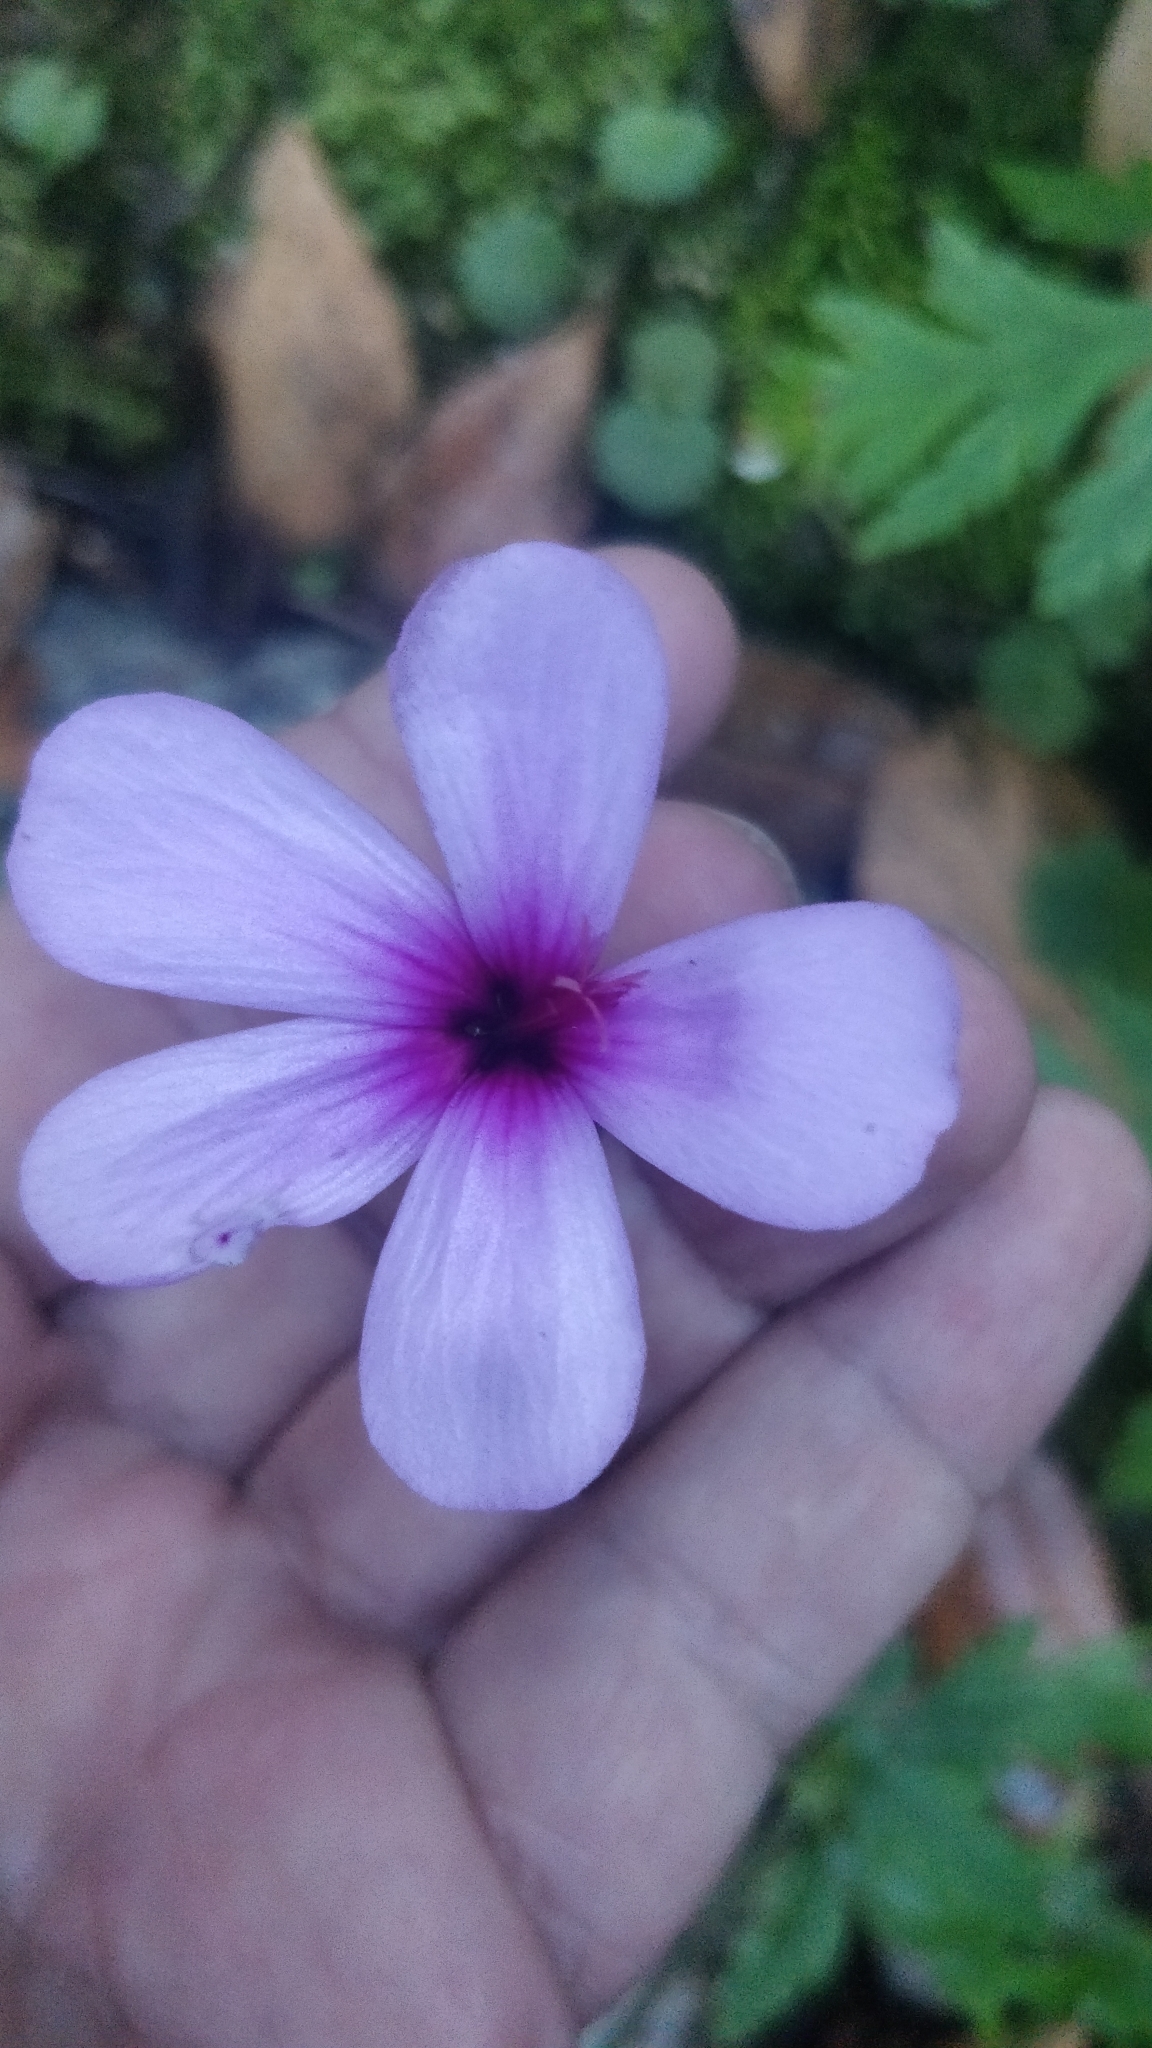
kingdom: Plantae
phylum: Tracheophyta
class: Magnoliopsida
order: Geraniales
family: Geraniaceae
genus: Geranium
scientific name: Geranium palmatum
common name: Canary island geranium
